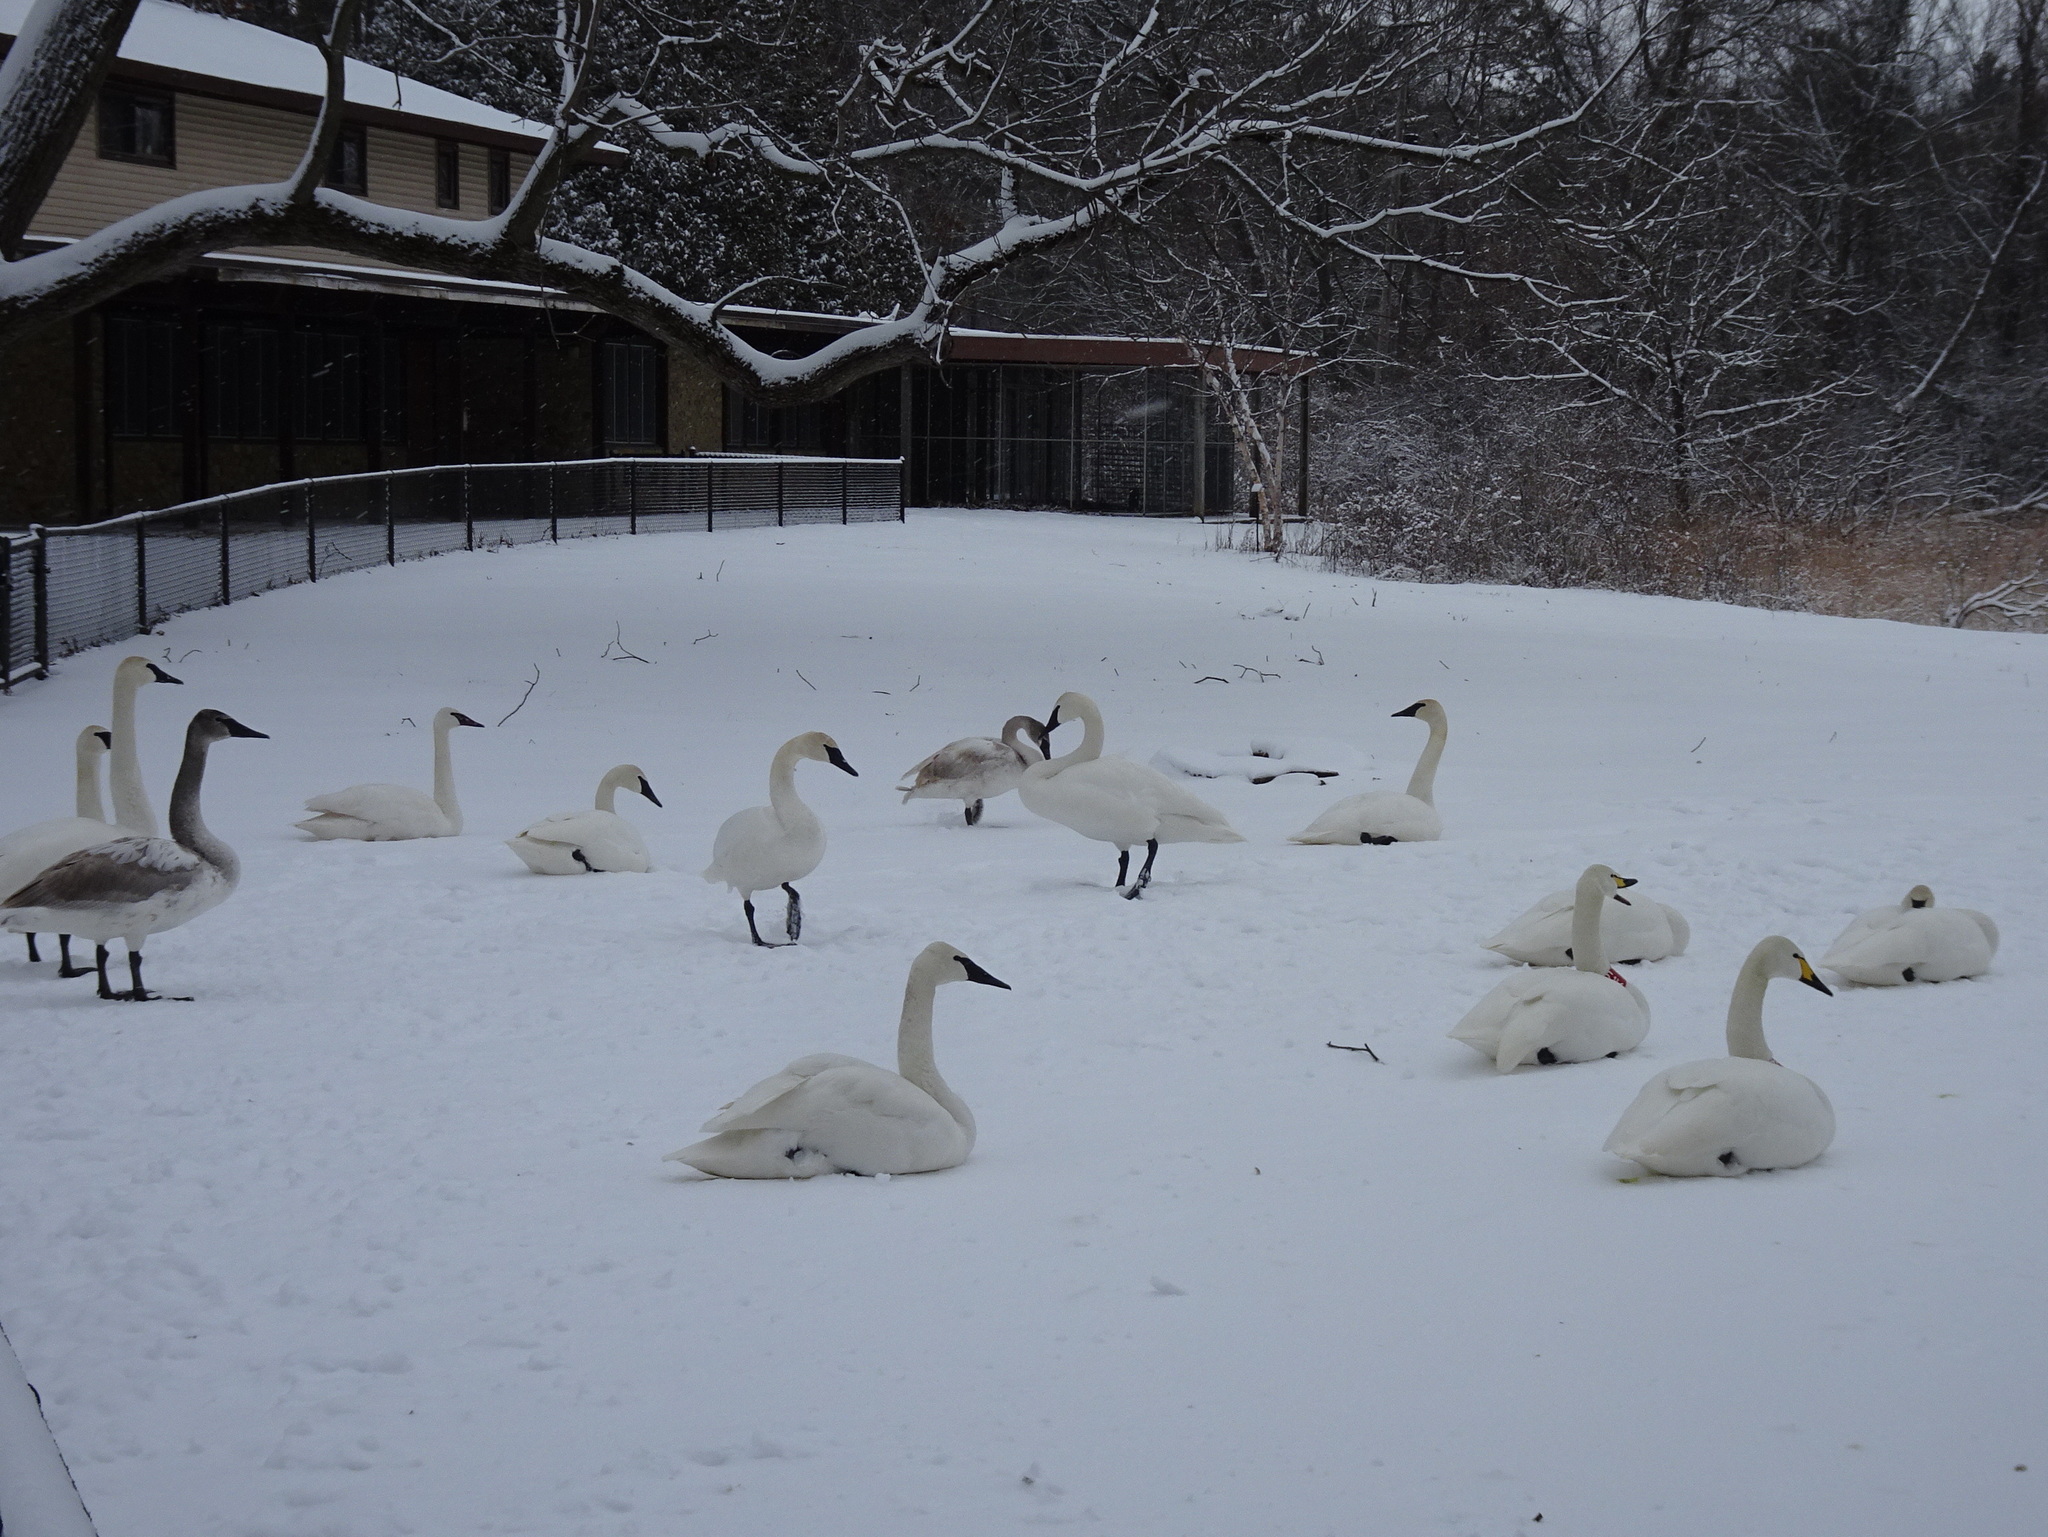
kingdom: Animalia
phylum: Chordata
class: Aves
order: Anseriformes
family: Anatidae
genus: Cygnus
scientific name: Cygnus buccinator
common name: Trumpeter swan
